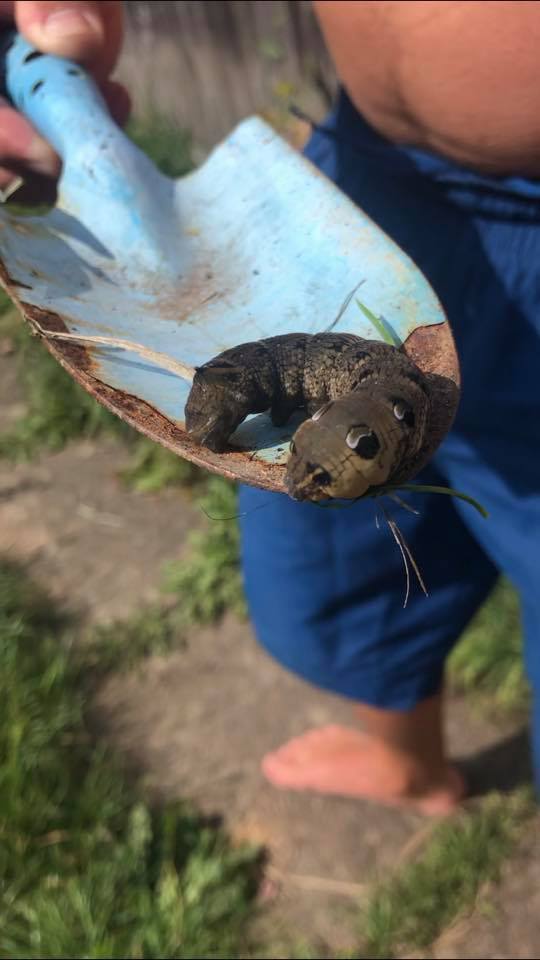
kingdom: Animalia
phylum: Arthropoda
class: Insecta
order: Lepidoptera
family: Sphingidae
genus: Deilephila
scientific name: Deilephila elpenor
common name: Elephant hawk-moth
